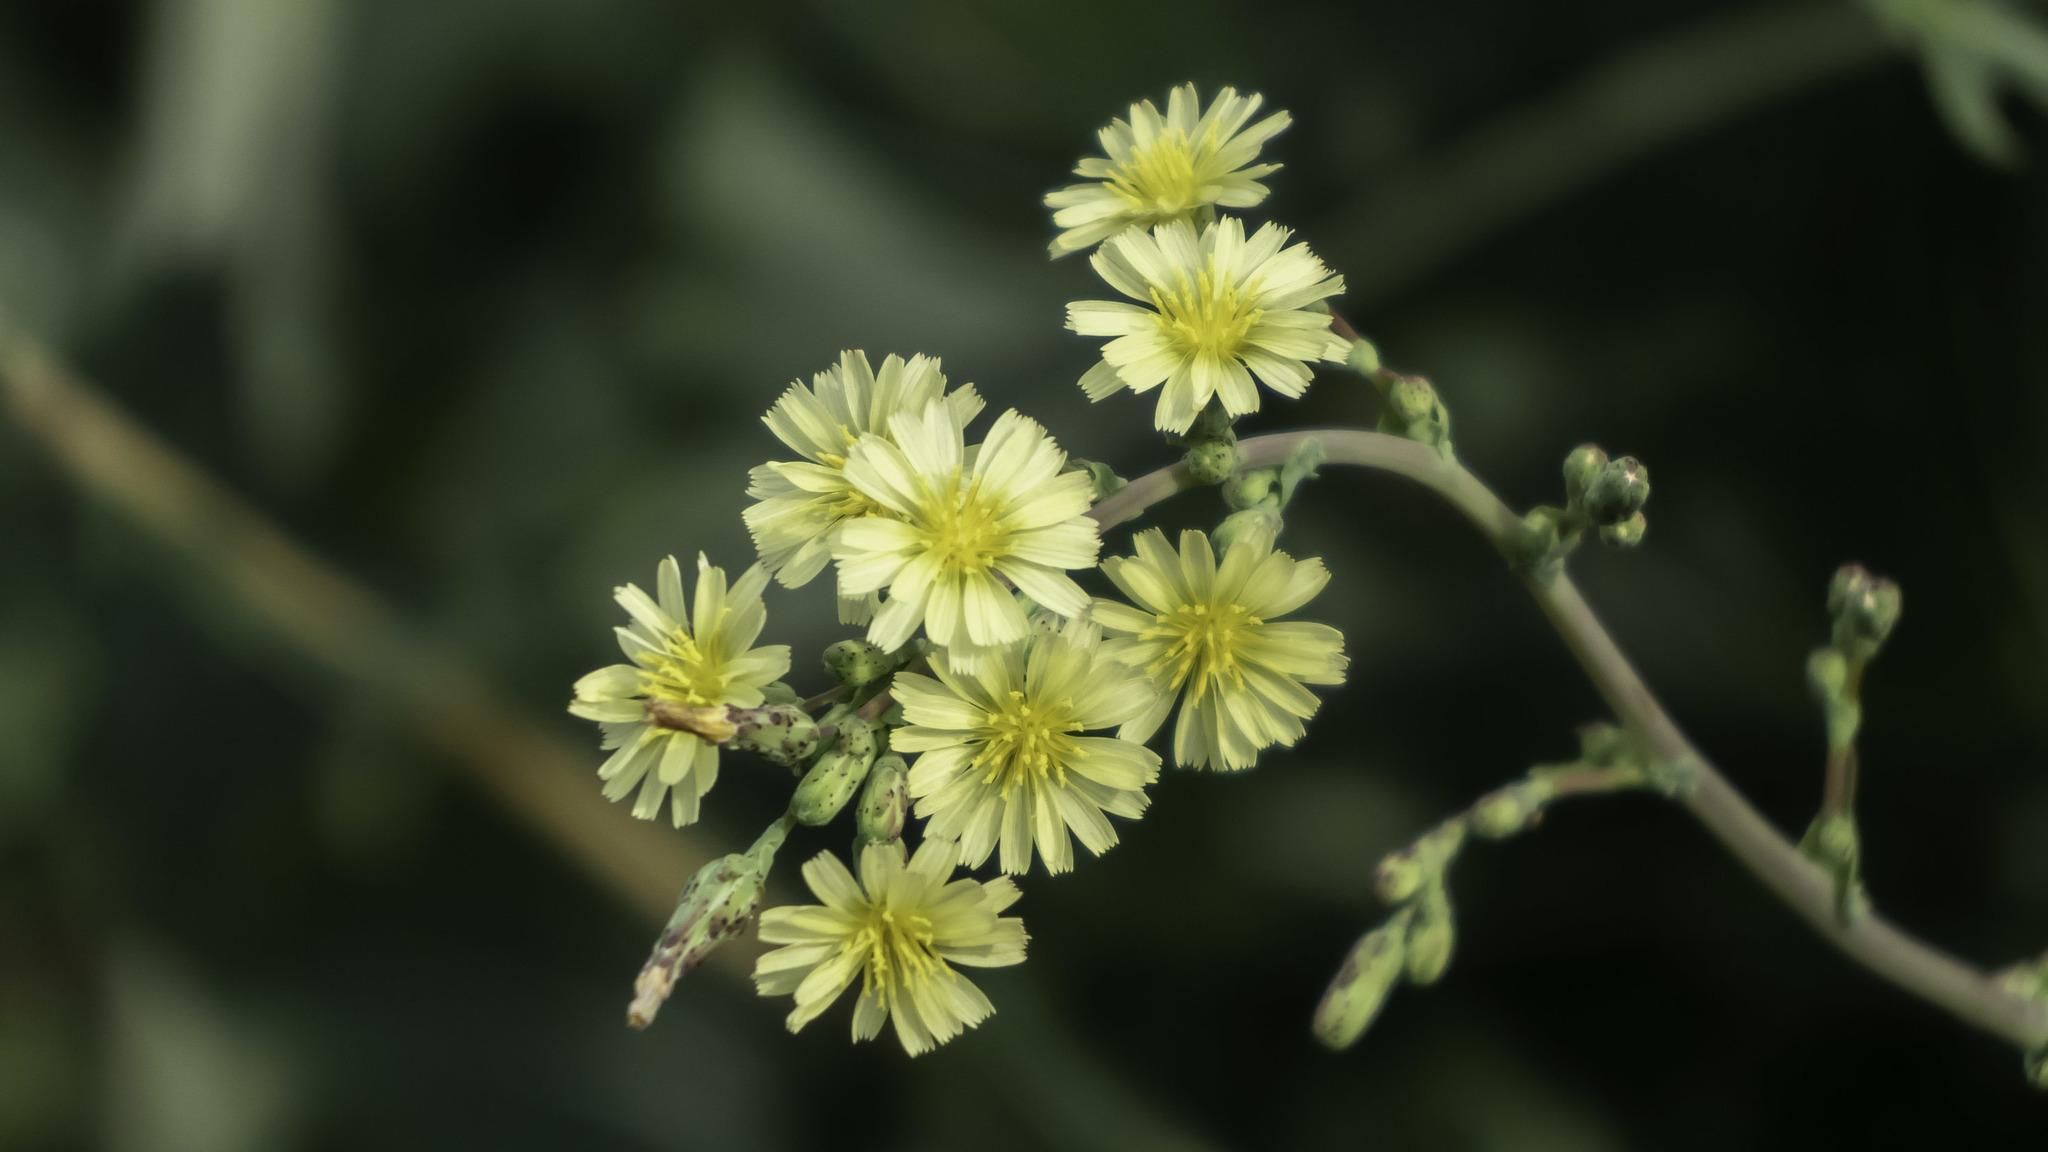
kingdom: Plantae
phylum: Tracheophyta
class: Magnoliopsida
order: Asterales
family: Asteraceae
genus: Lactuca
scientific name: Lactuca serriola
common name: Prickly lettuce
